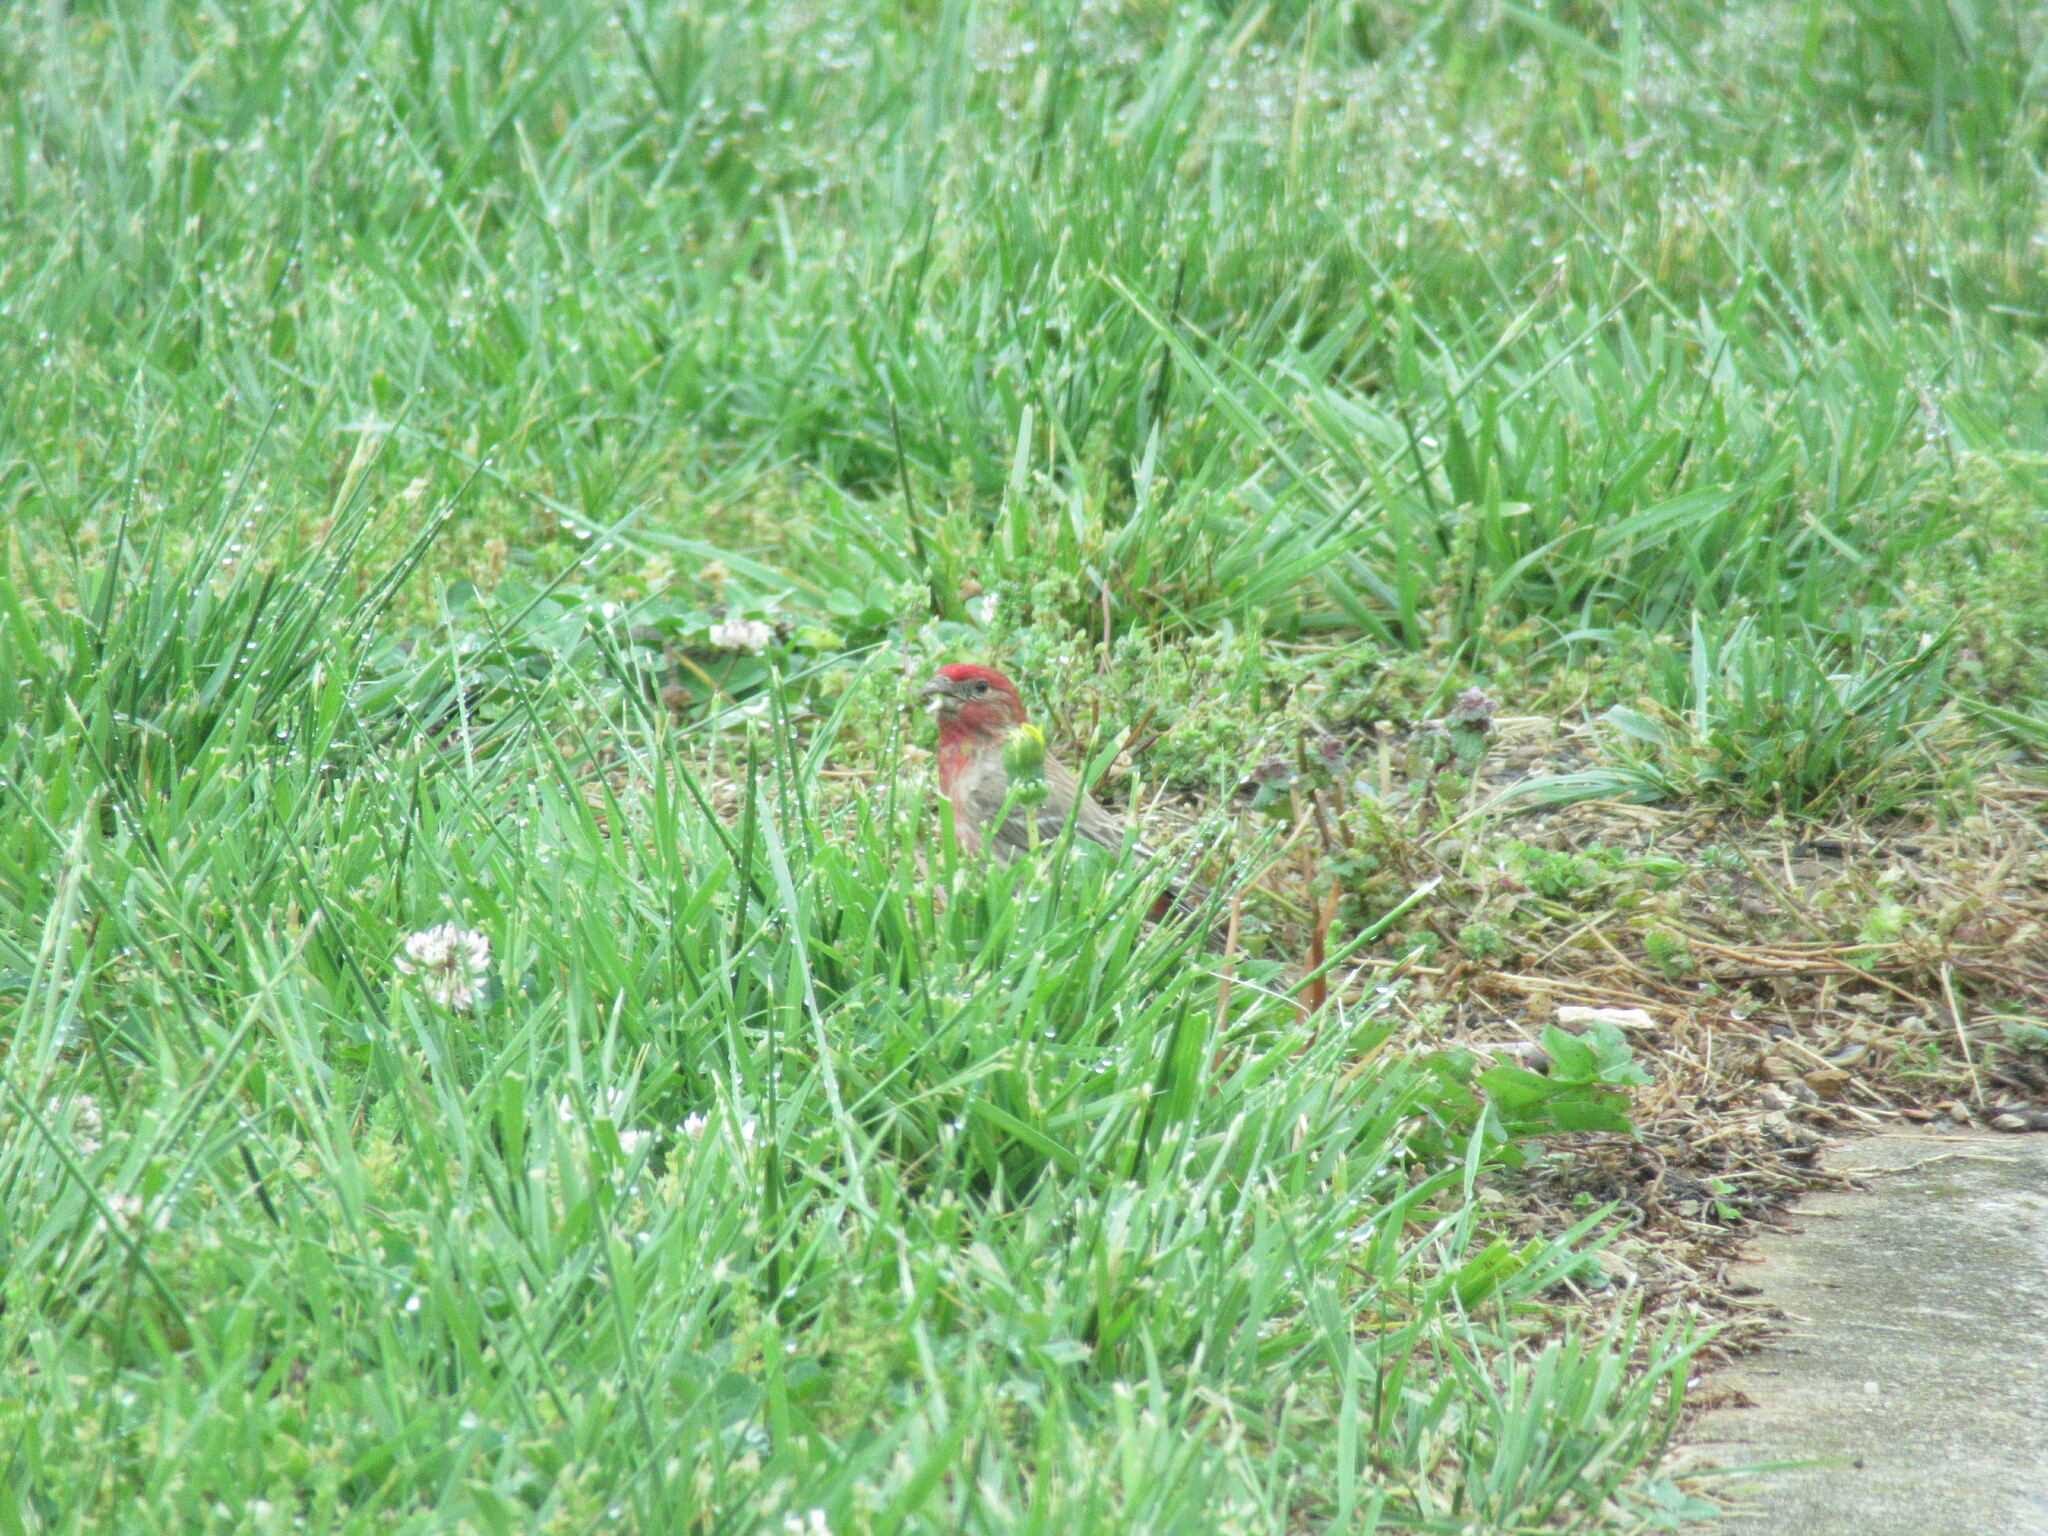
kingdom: Animalia
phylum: Chordata
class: Aves
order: Passeriformes
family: Fringillidae
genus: Haemorhous
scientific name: Haemorhous mexicanus
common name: House finch
